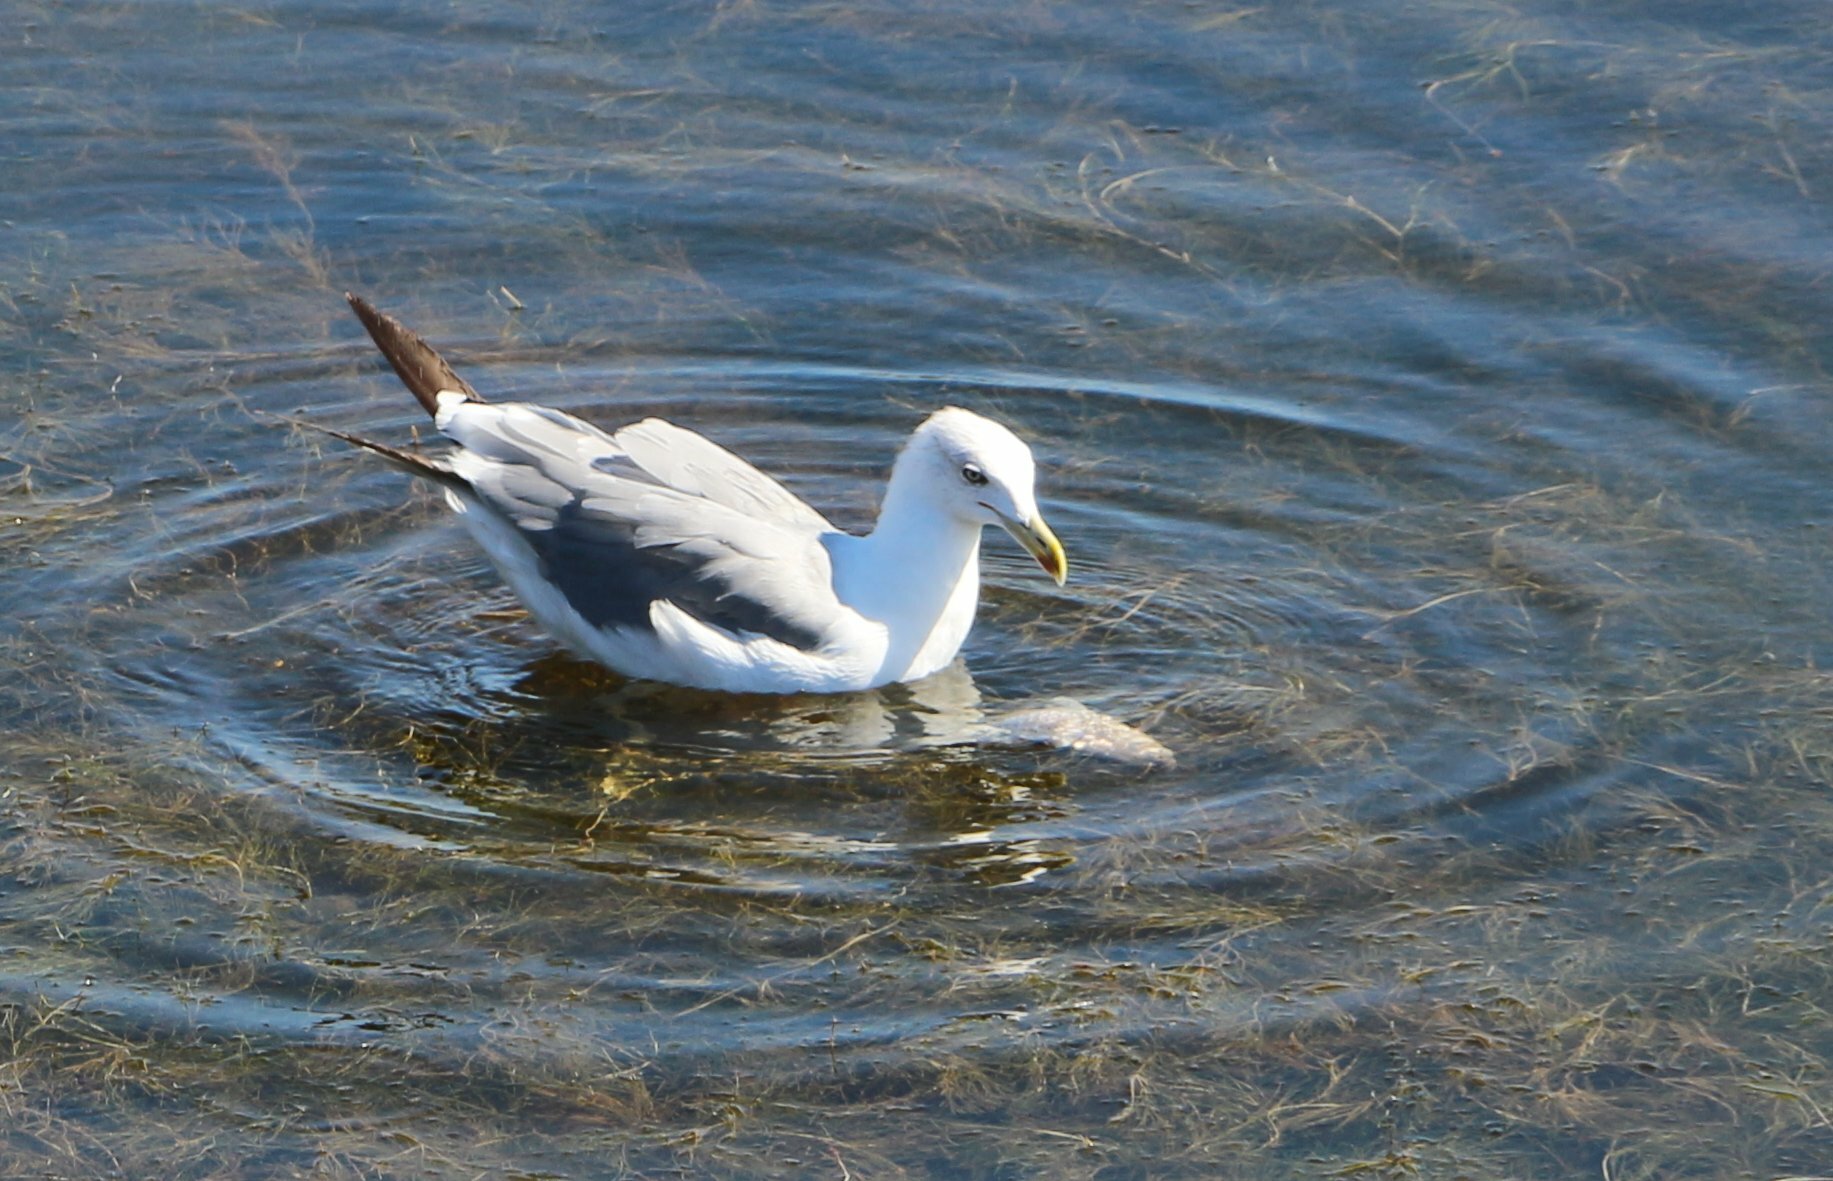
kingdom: Animalia
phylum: Chordata
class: Aves
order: Charadriiformes
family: Laridae
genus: Larus
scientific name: Larus michahellis
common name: Yellow-legged gull
